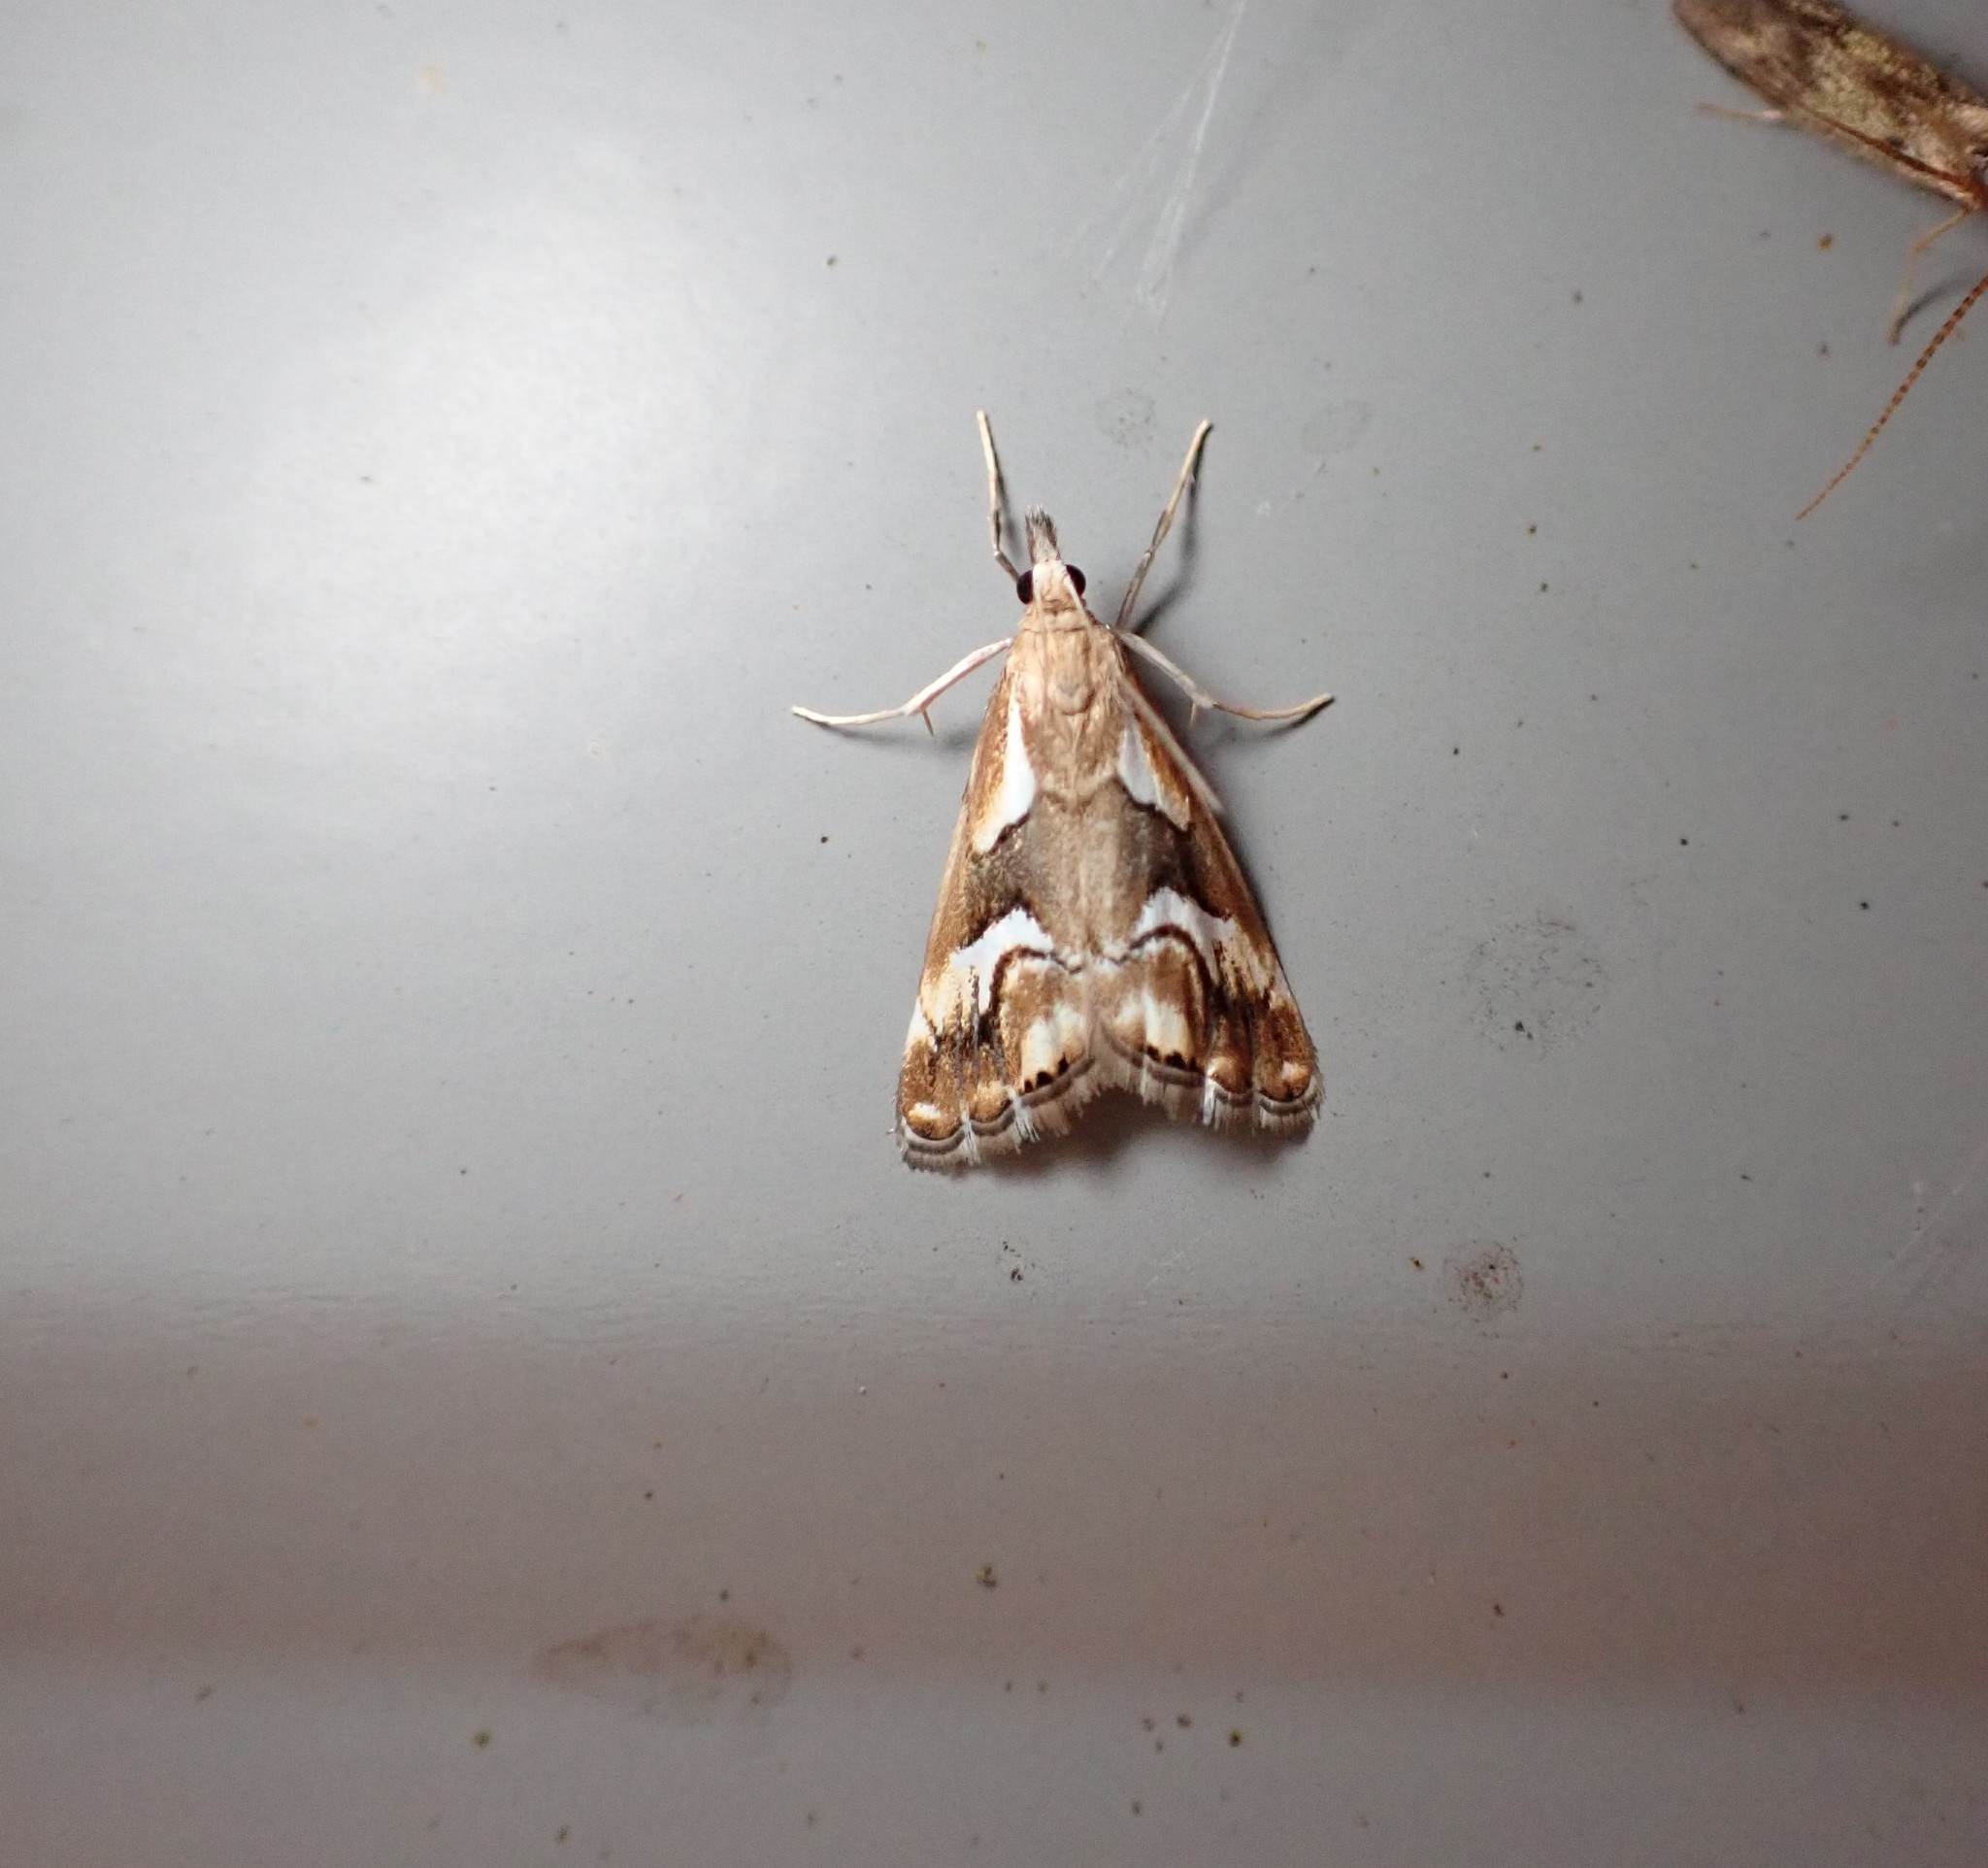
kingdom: Animalia
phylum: Arthropoda
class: Insecta
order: Lepidoptera
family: Crambidae
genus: Glaucocharis
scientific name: Glaucocharis interruptus
